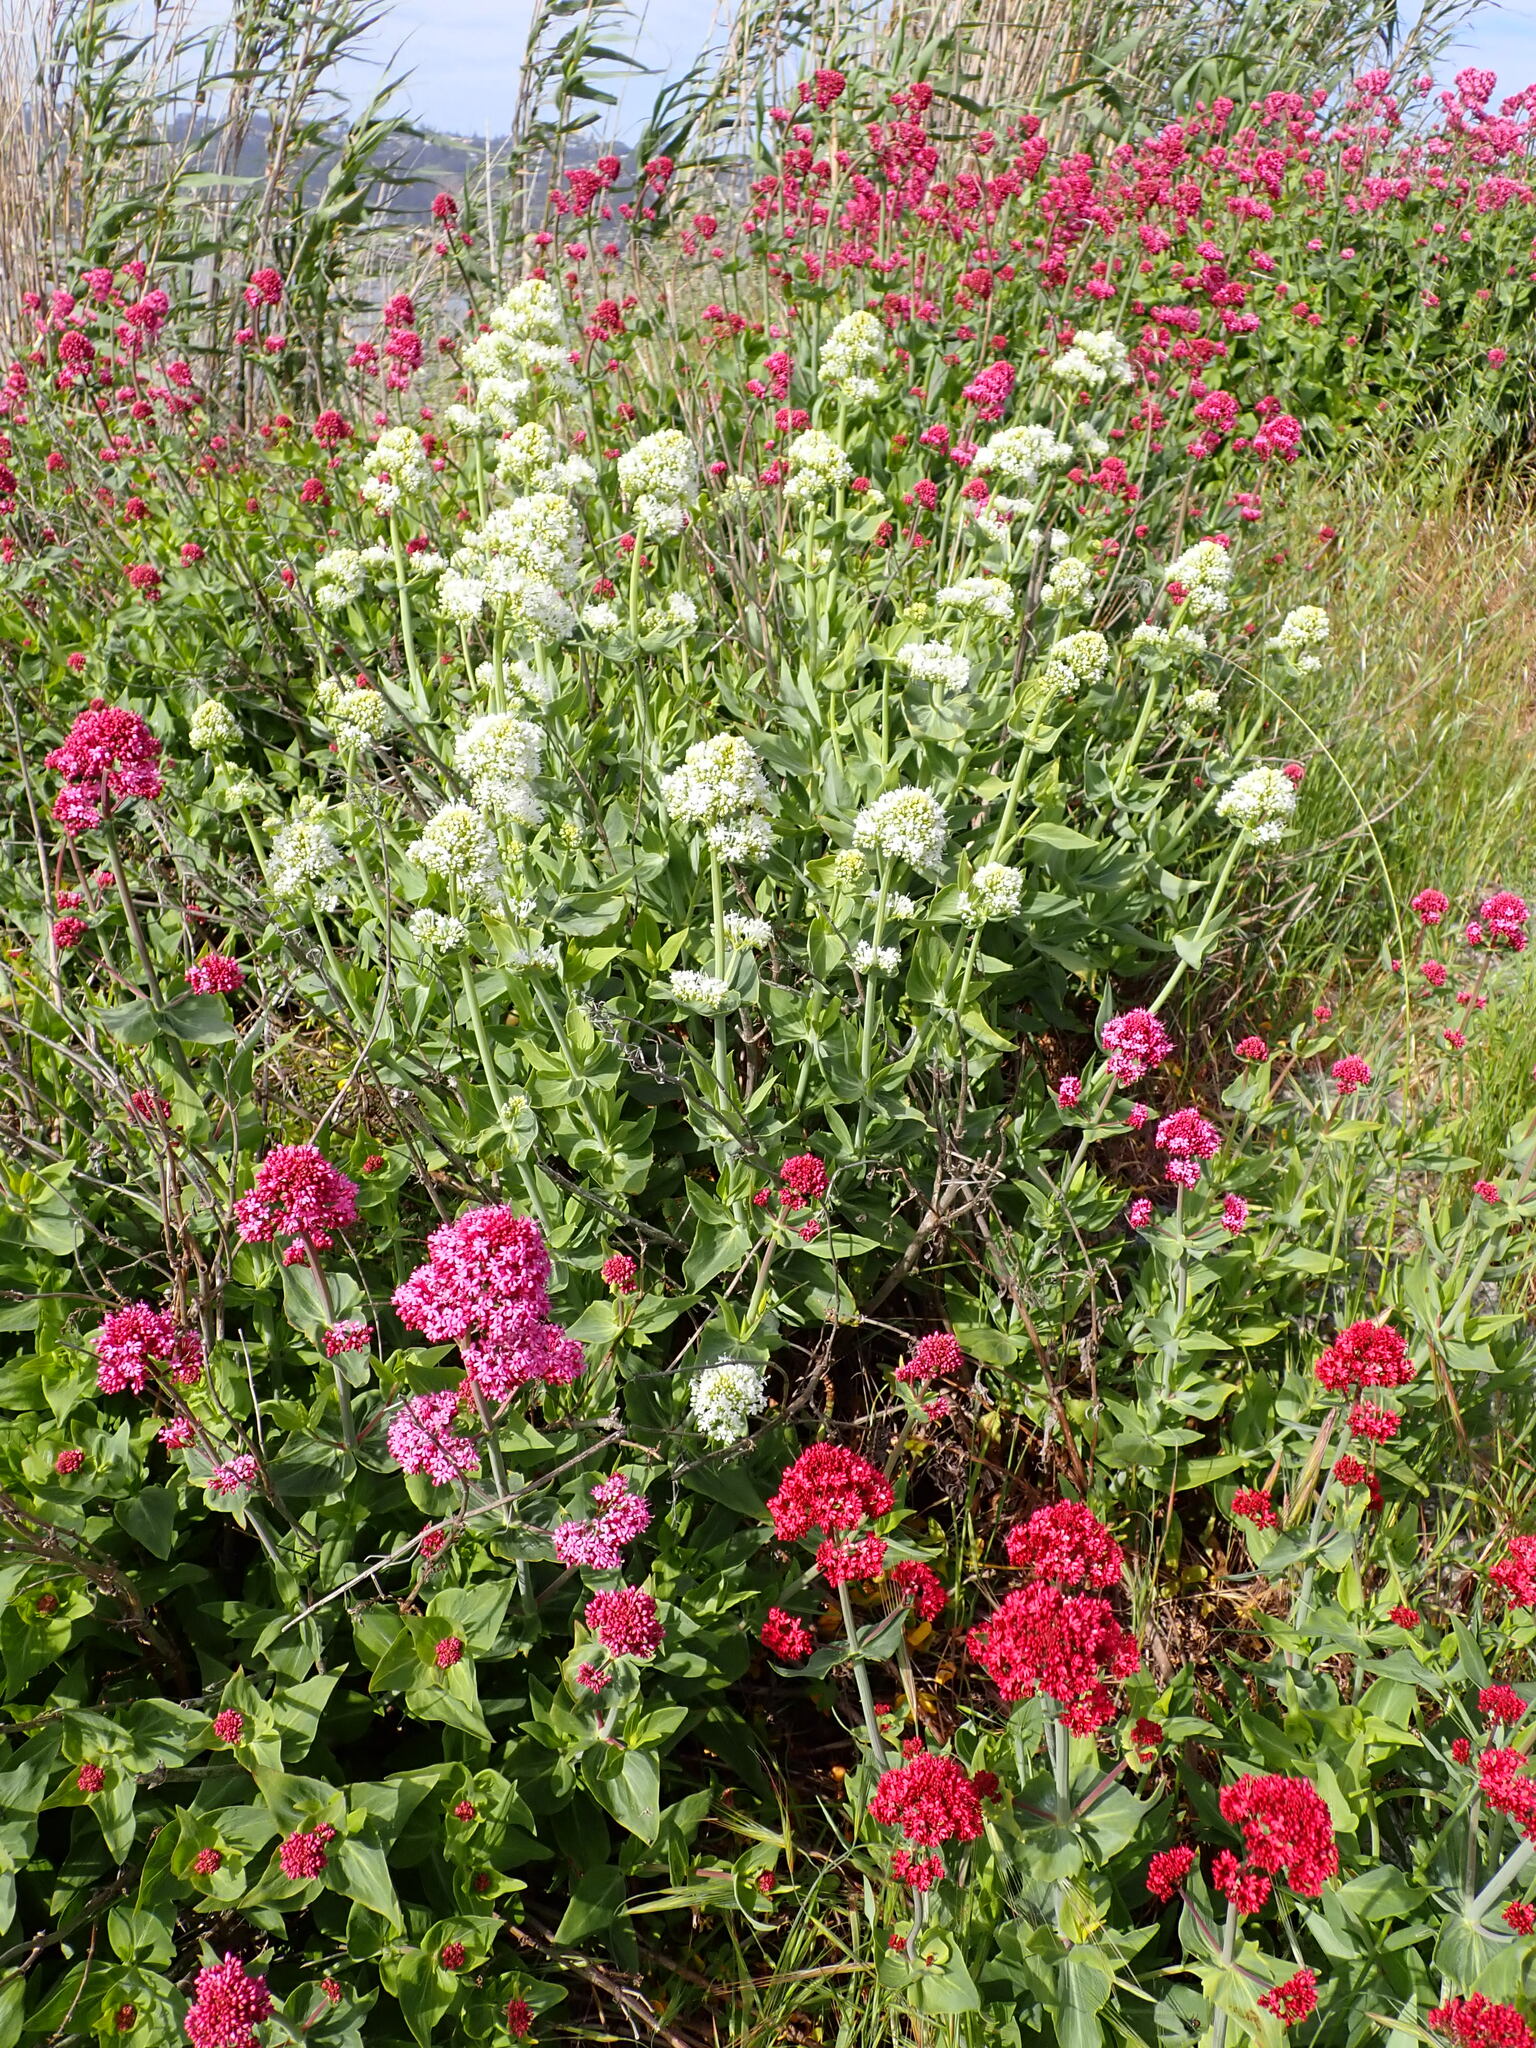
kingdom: Plantae
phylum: Tracheophyta
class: Magnoliopsida
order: Dipsacales
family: Caprifoliaceae
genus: Centranthus
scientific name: Centranthus ruber
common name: Red valerian
